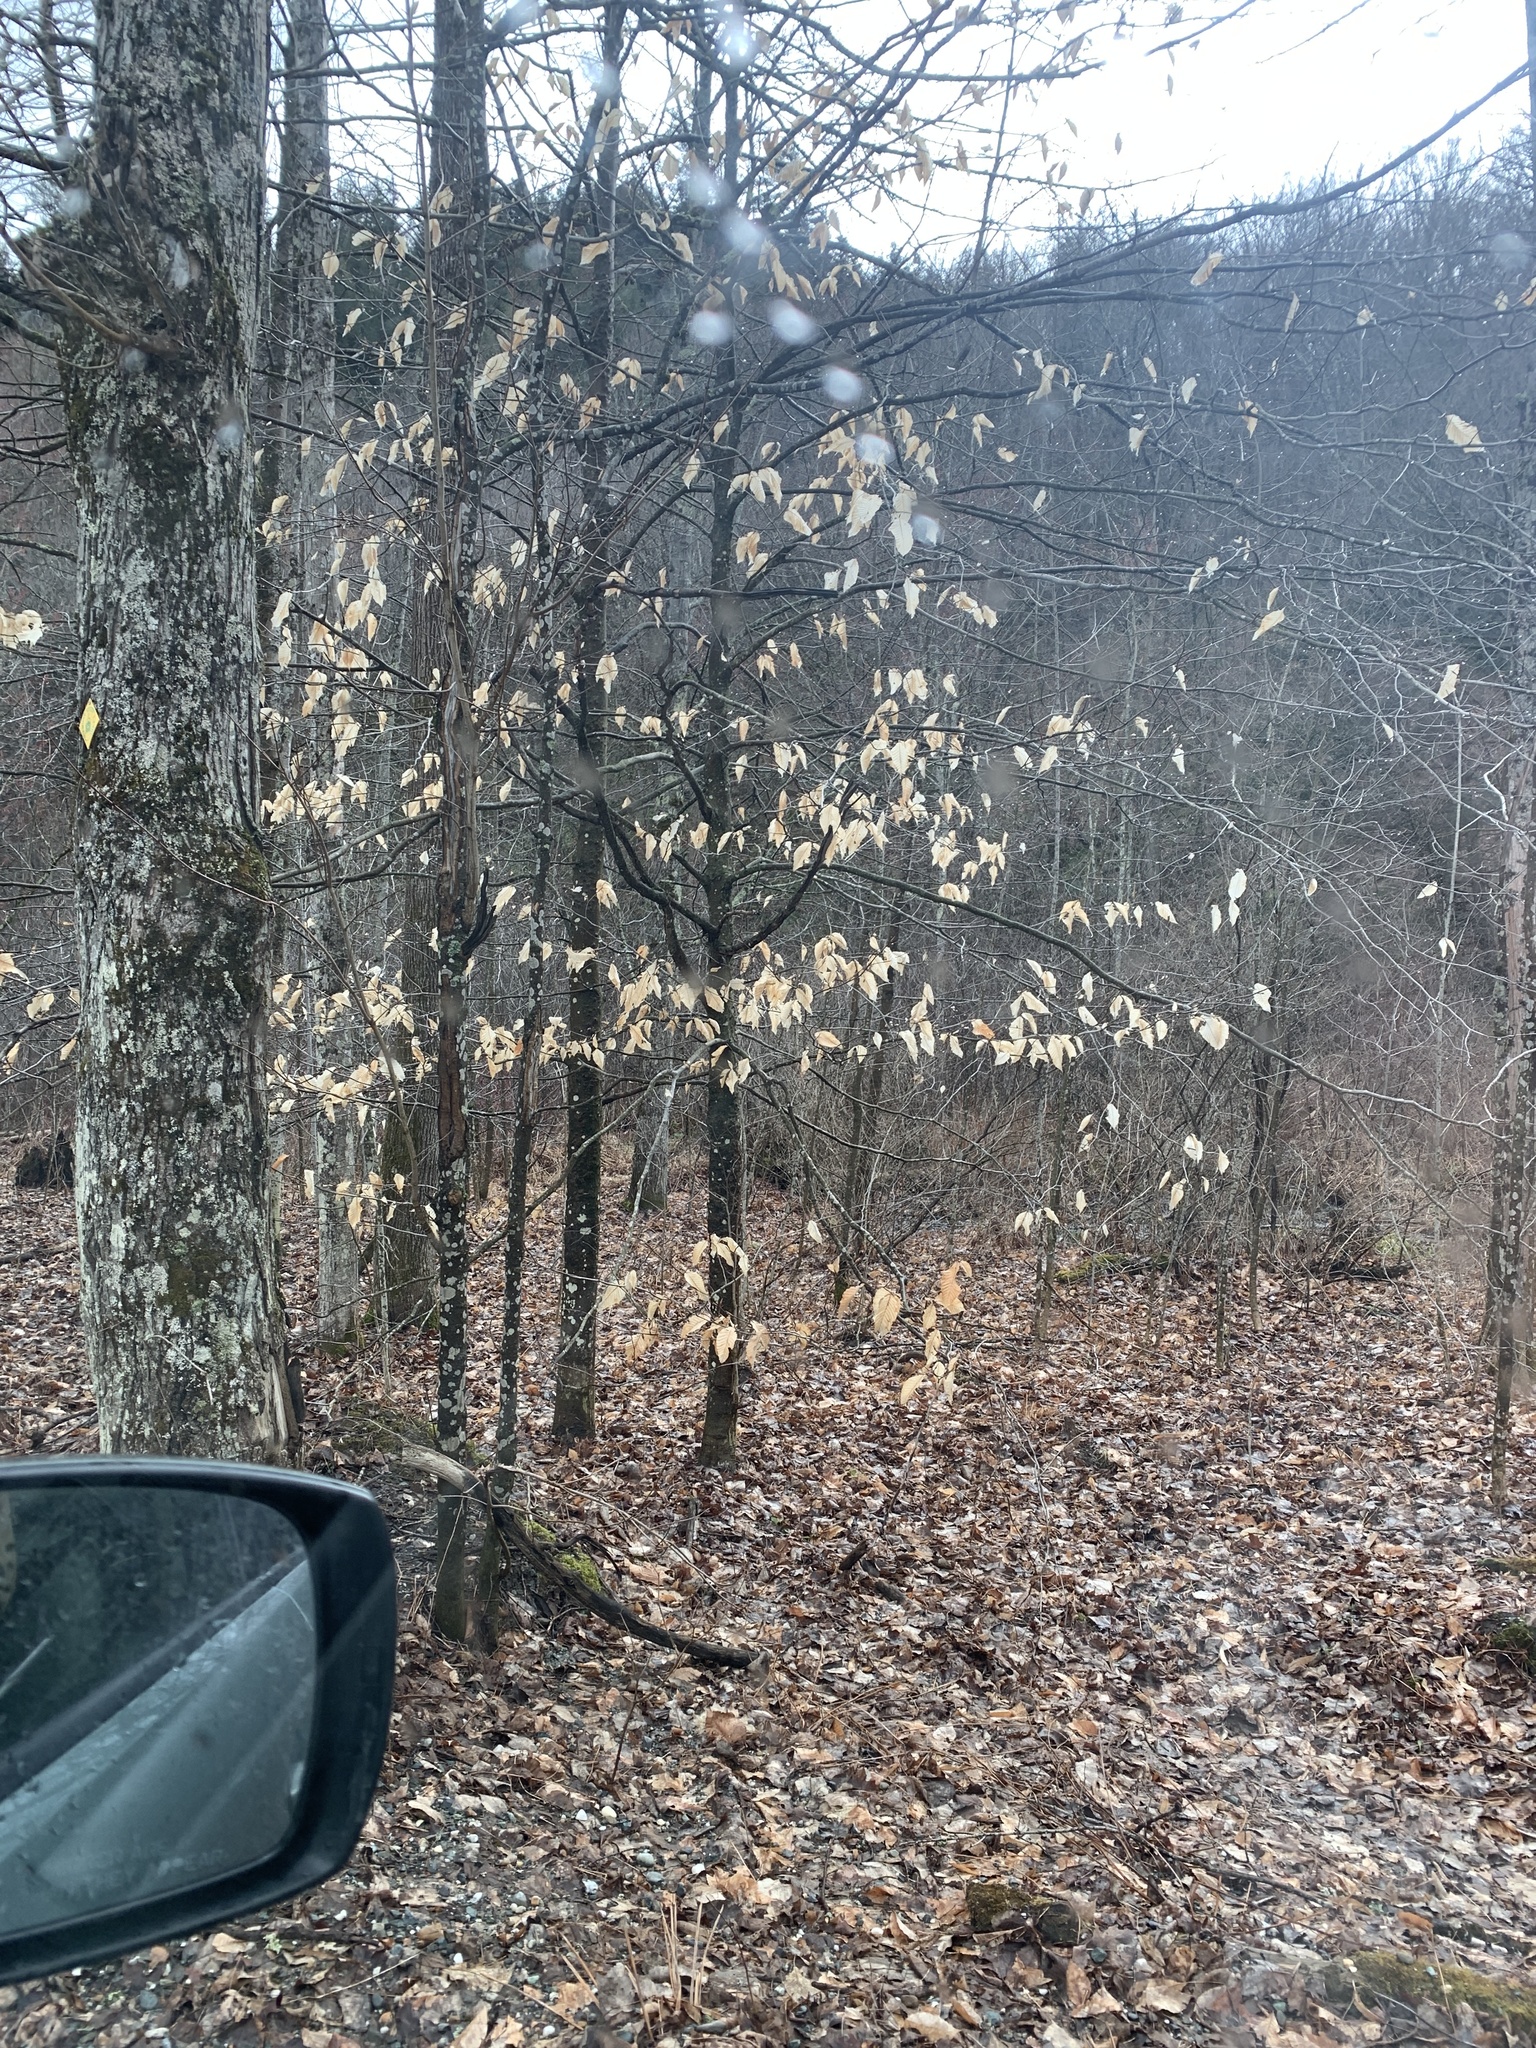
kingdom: Plantae
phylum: Tracheophyta
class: Magnoliopsida
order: Fagales
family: Fagaceae
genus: Fagus
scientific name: Fagus grandifolia
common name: American beech
